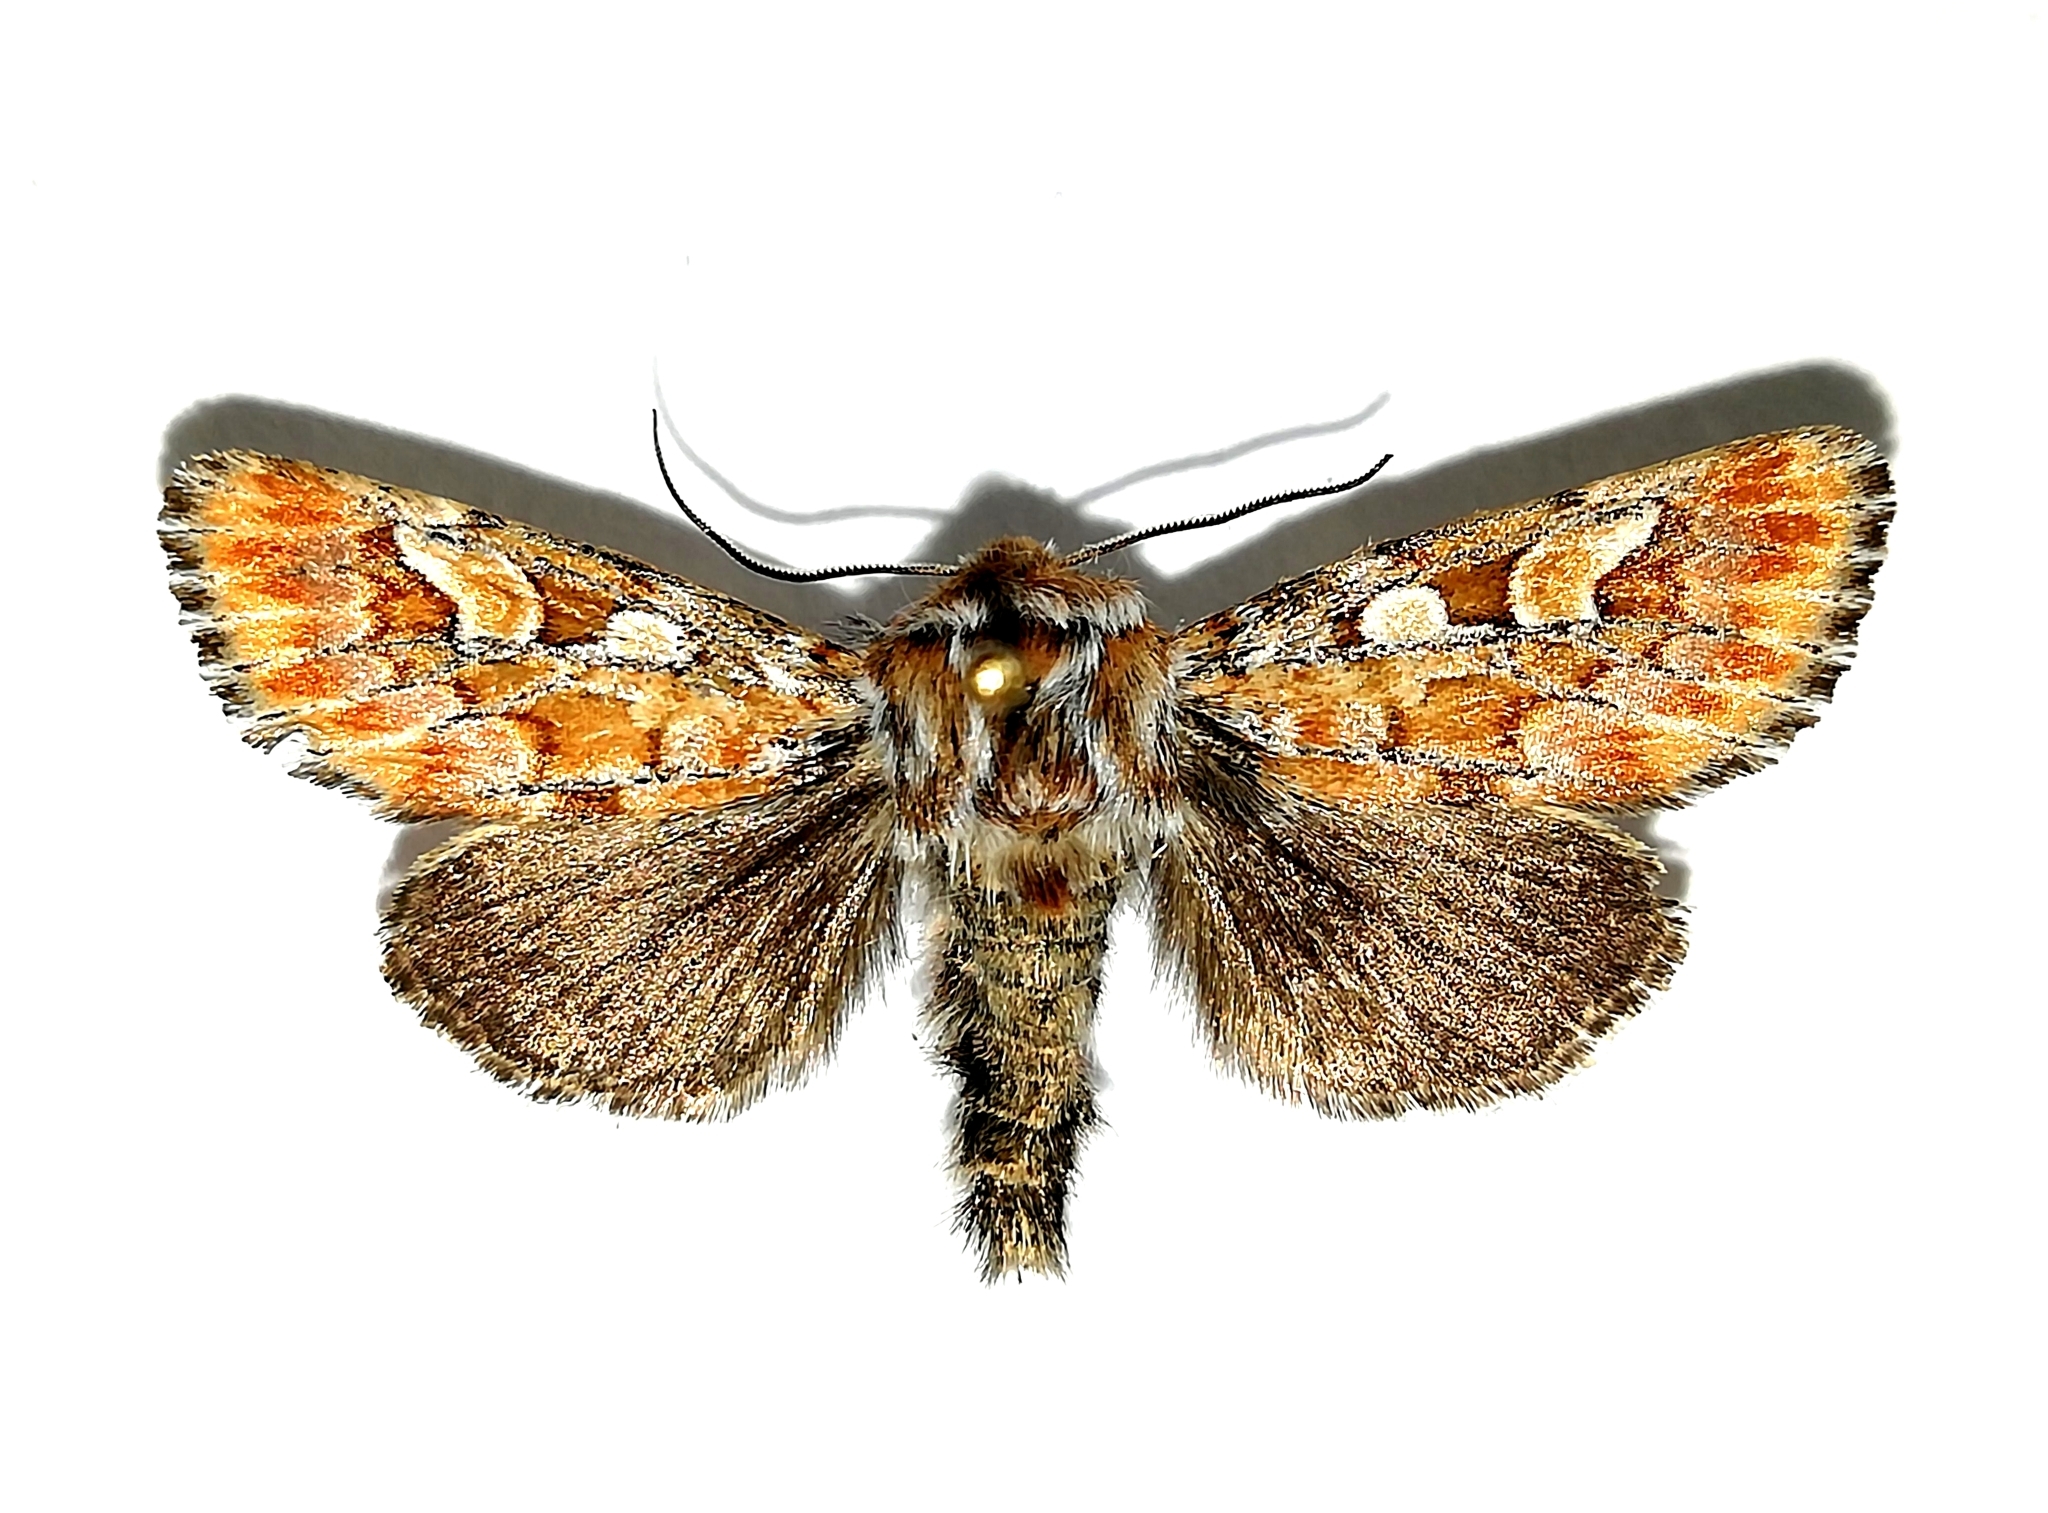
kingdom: Animalia
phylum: Arthropoda
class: Insecta
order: Lepidoptera
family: Noctuidae
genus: Panolis
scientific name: Panolis flammea
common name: Pine beauty
